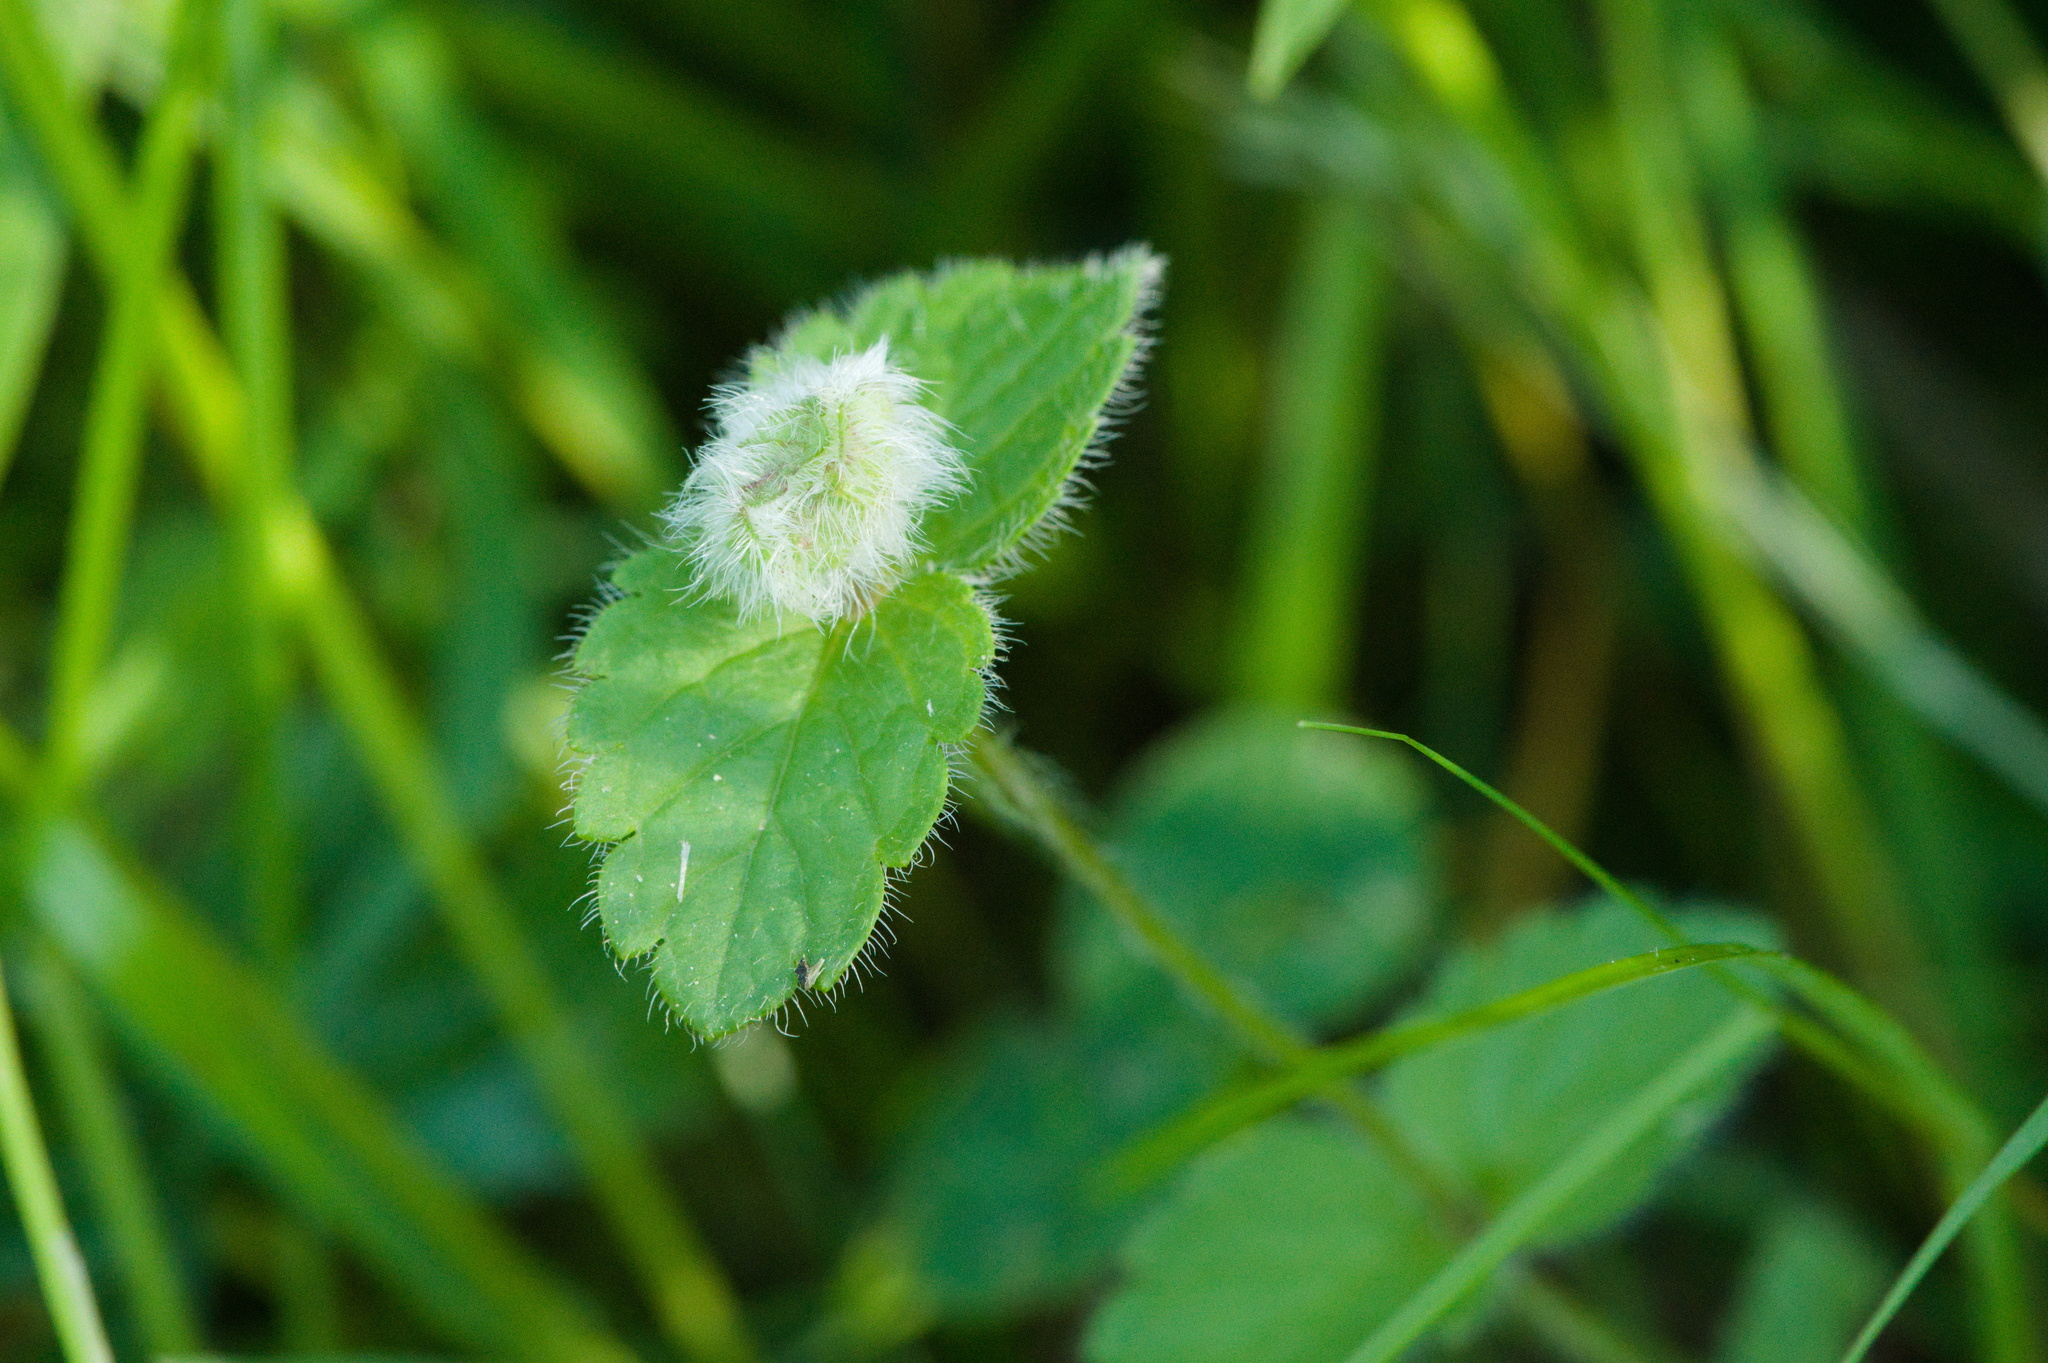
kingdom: Animalia
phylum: Arthropoda
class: Insecta
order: Diptera
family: Cecidomyiidae
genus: Jaapiella
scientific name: Jaapiella veronicae
